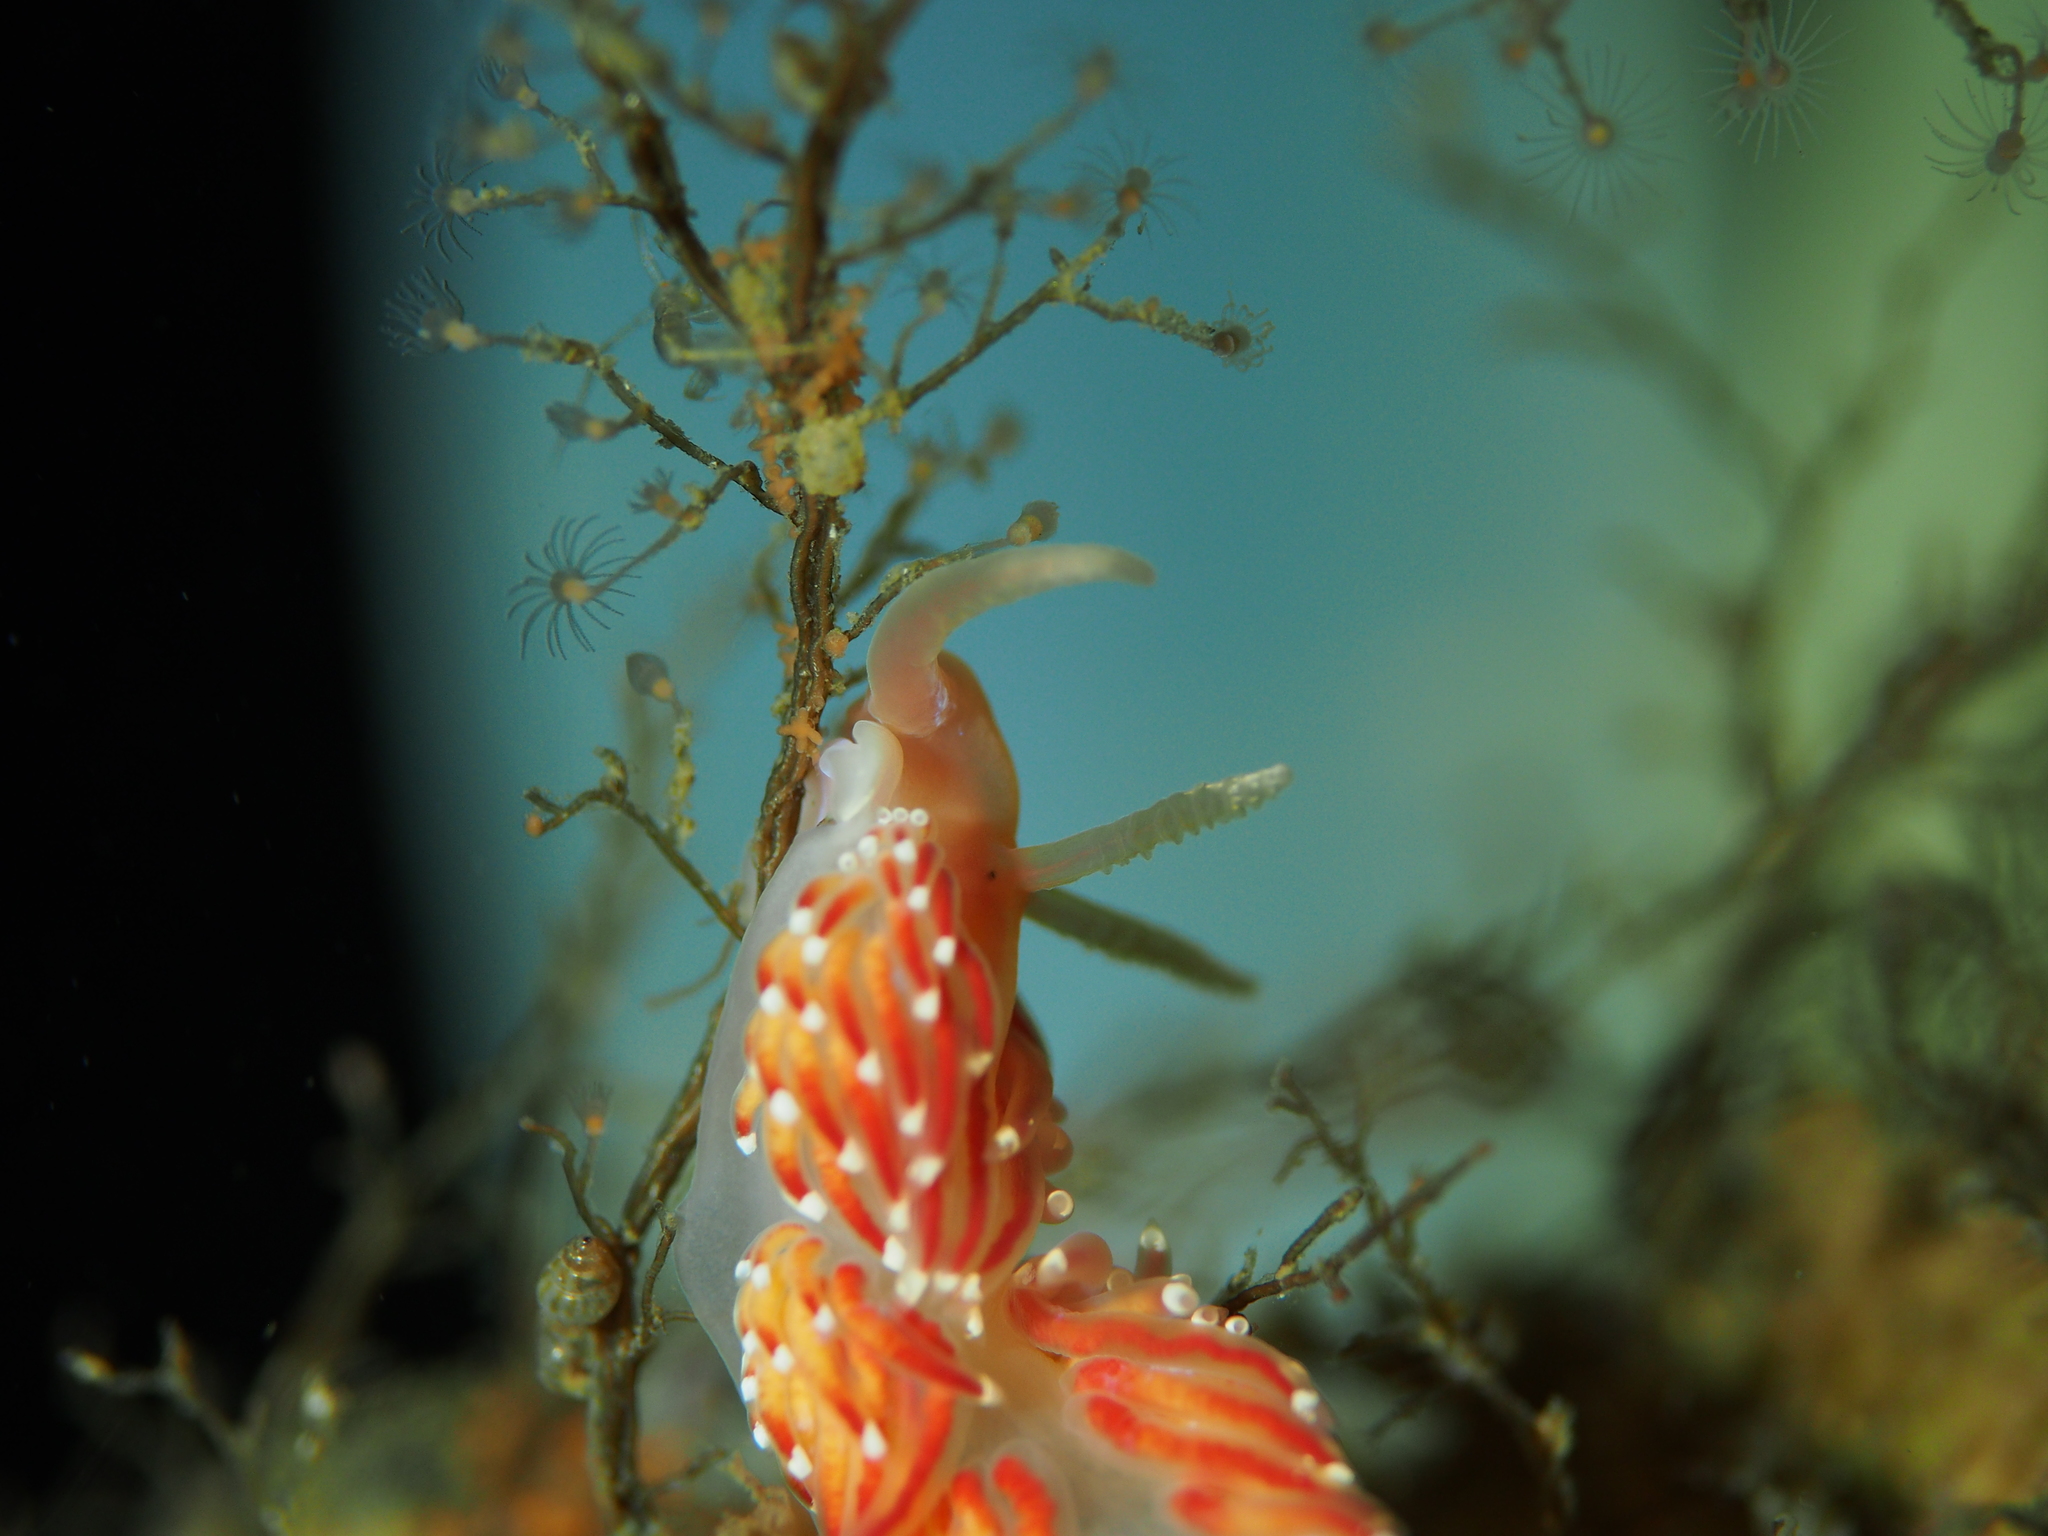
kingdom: Animalia
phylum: Mollusca
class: Gastropoda
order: Nudibranchia
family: Facelinidae
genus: Facelina
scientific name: Facelina bostoniensis
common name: Boston facelina
